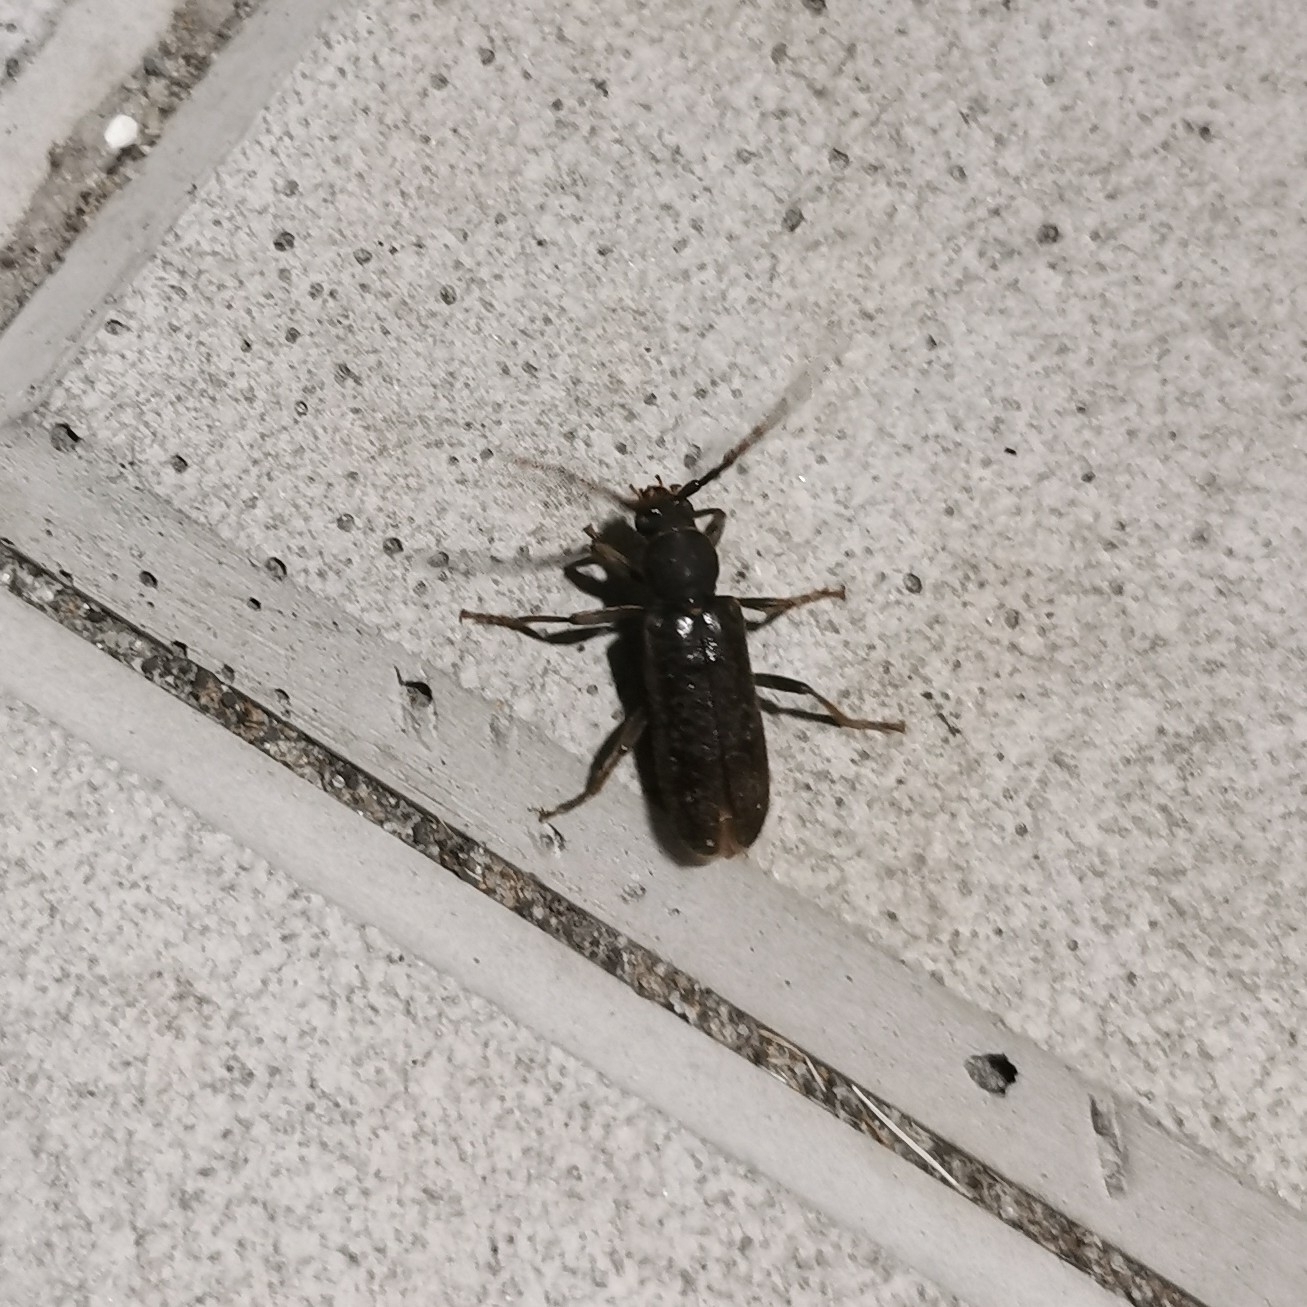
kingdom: Animalia
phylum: Arthropoda
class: Insecta
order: Coleoptera
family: Cerambycidae
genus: Trichoferus
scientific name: Trichoferus campestris
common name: Velvet long horned beetle
